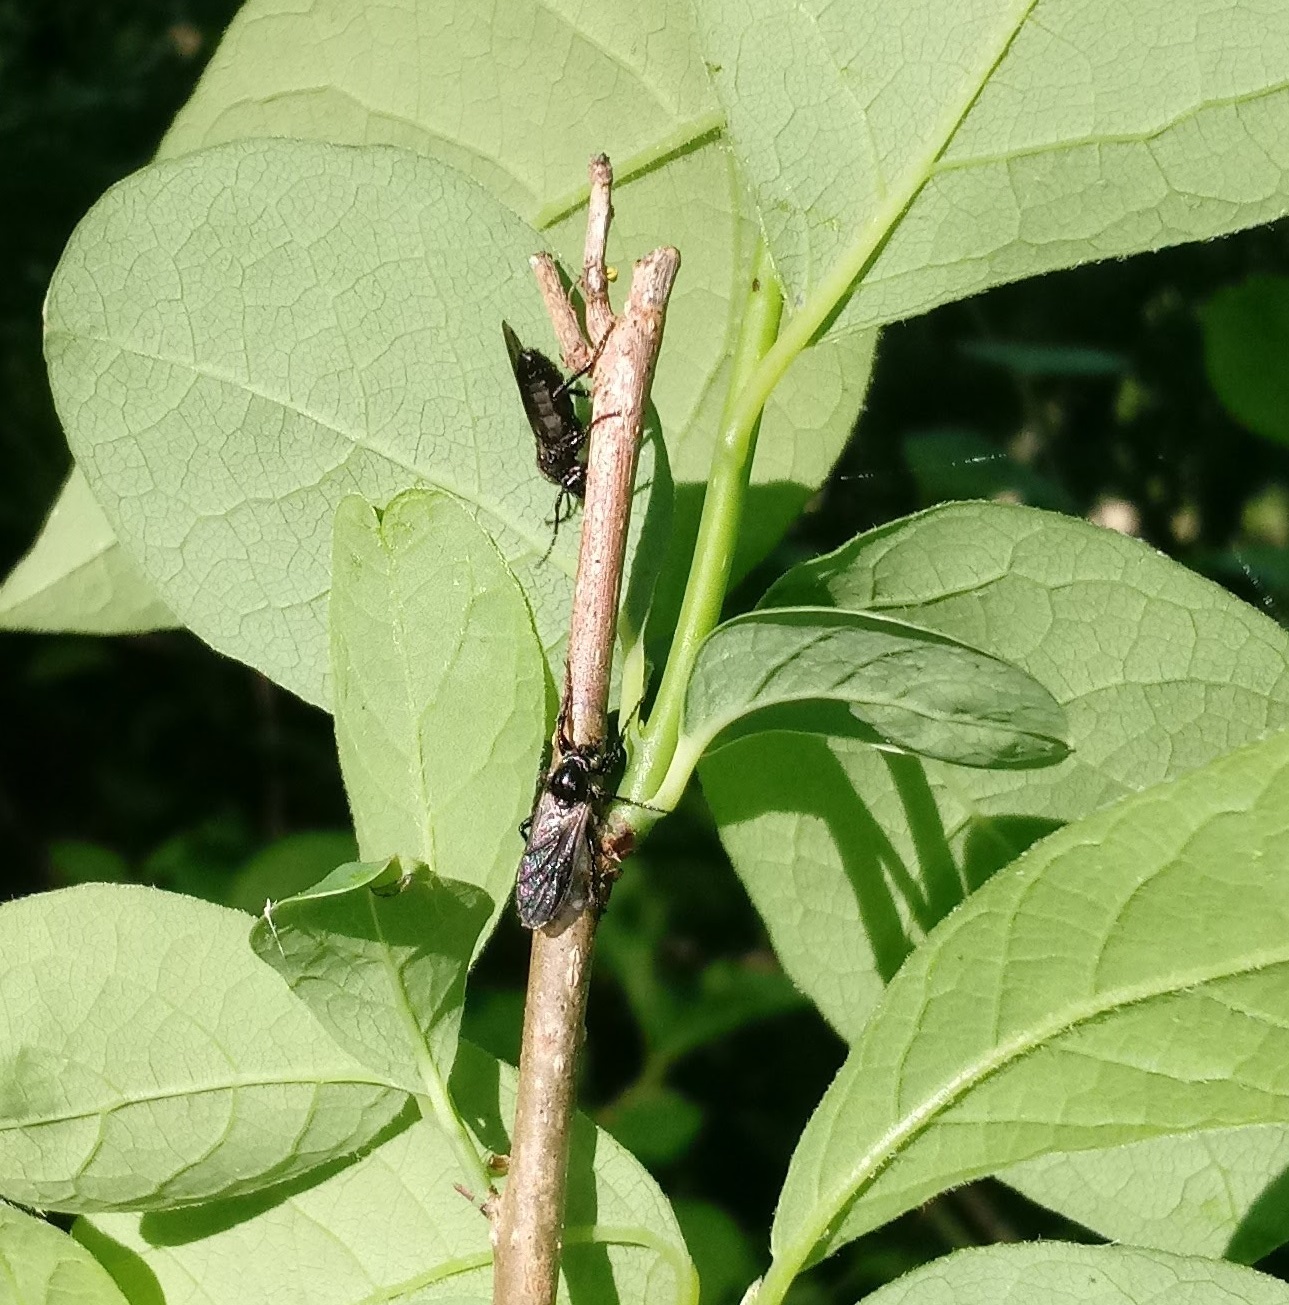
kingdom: Animalia
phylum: Arthropoda
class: Insecta
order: Diptera
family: Bibionidae
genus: Bibio
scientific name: Bibio albipennis
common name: White-winged march fly
